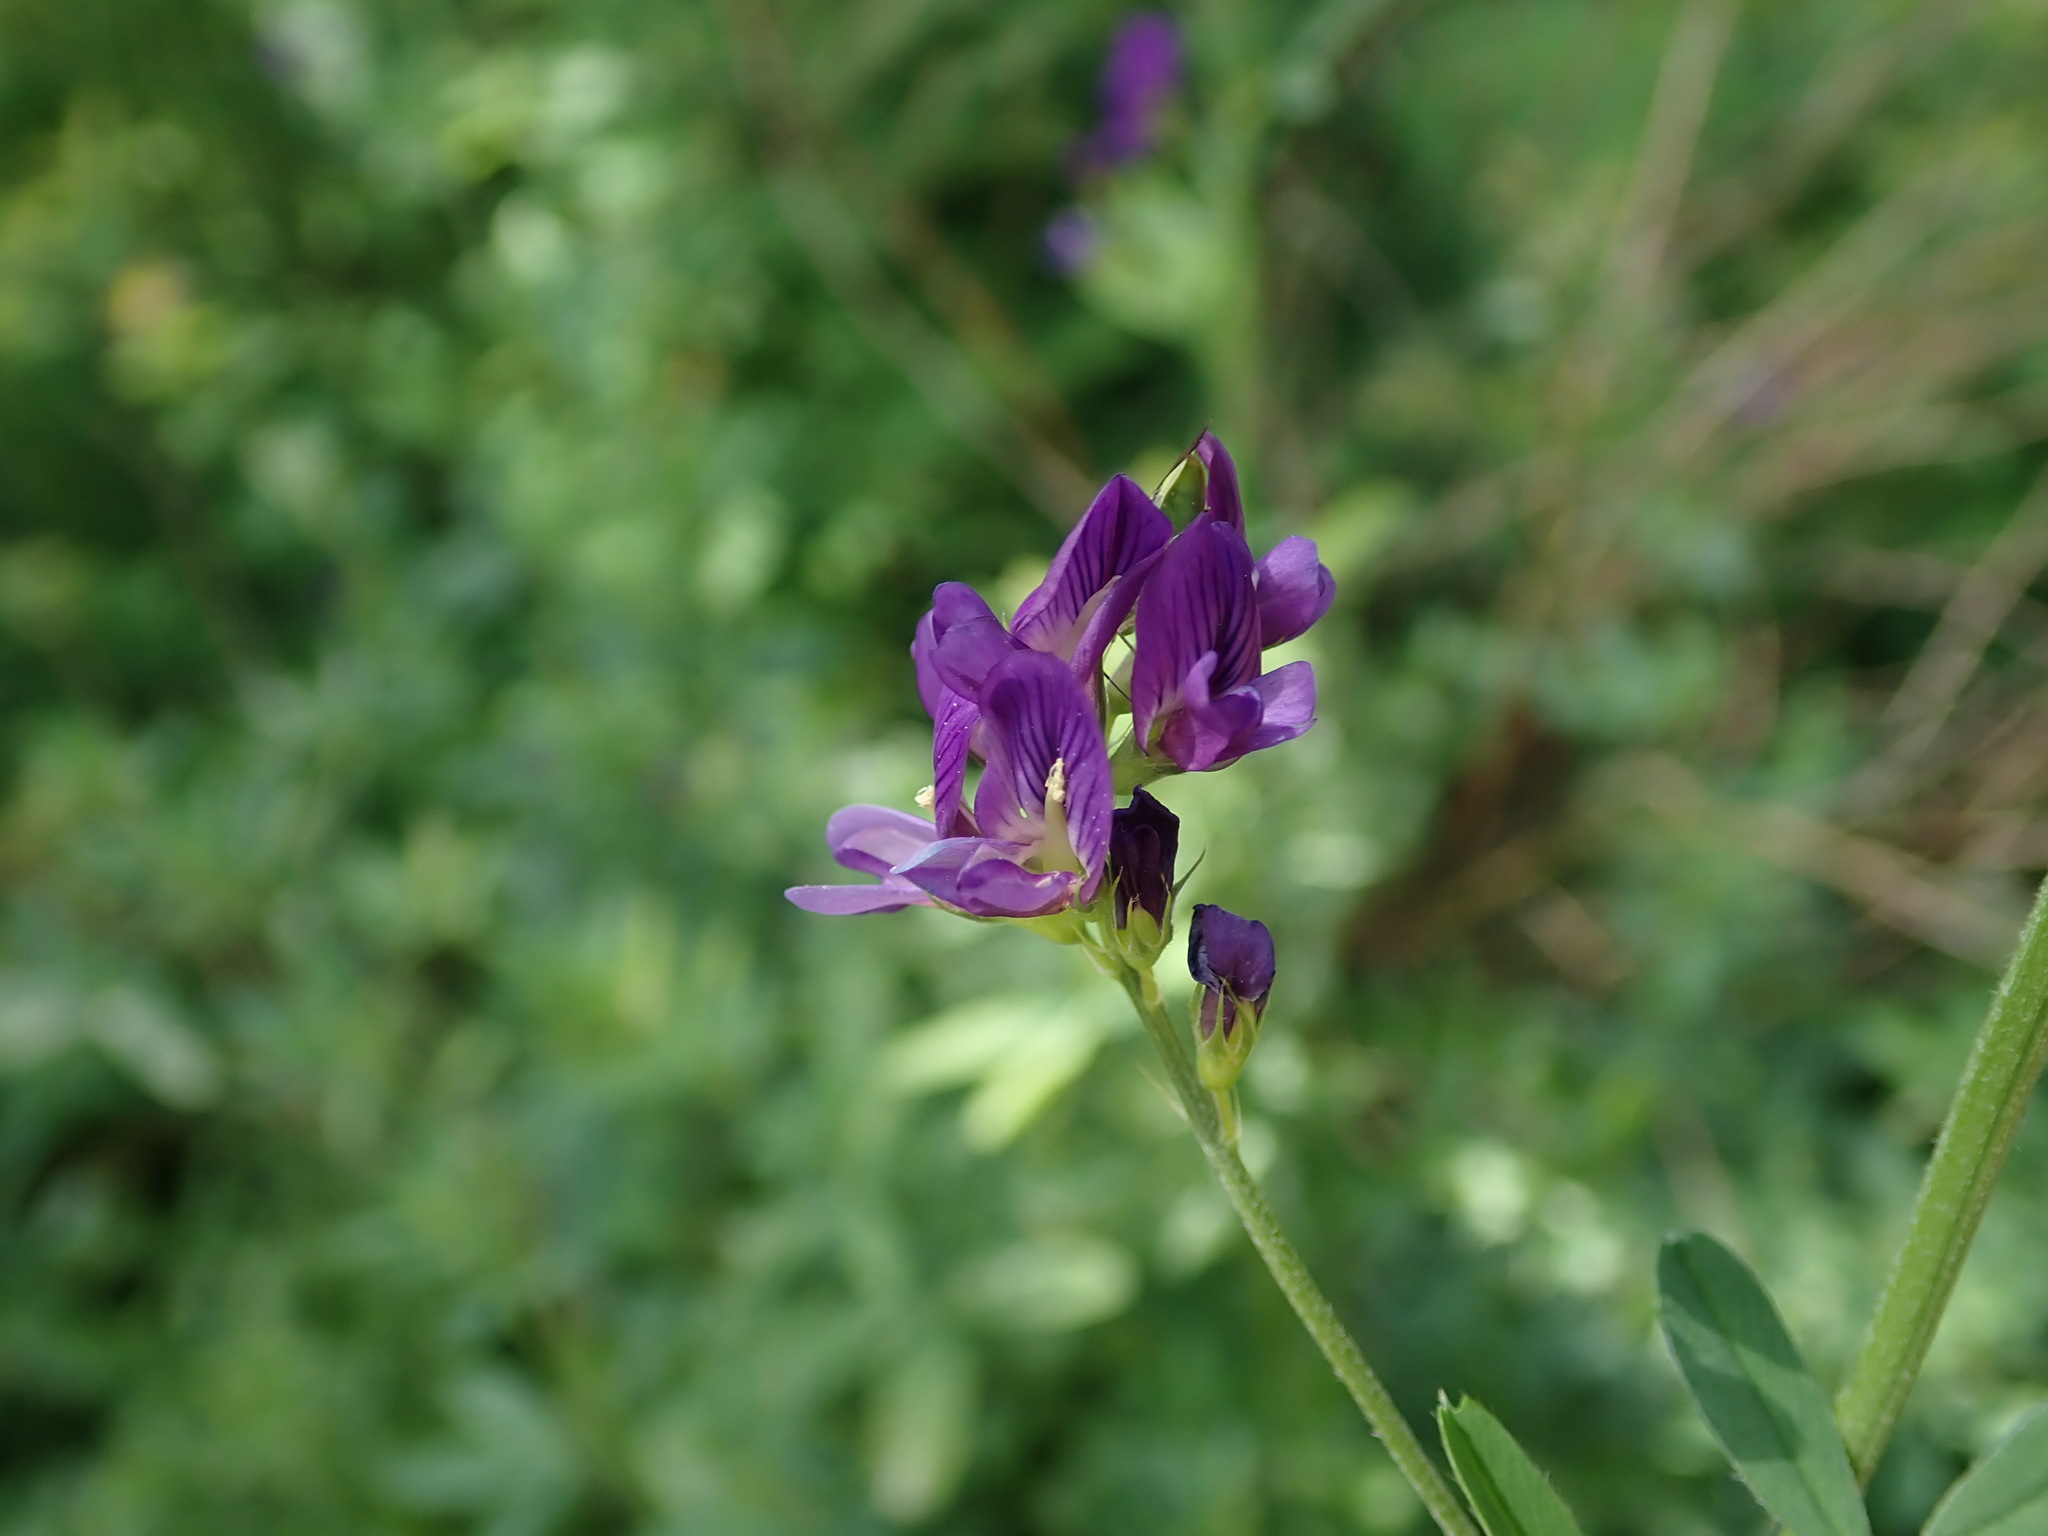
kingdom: Plantae
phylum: Tracheophyta
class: Magnoliopsida
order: Fabales
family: Fabaceae
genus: Medicago
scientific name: Medicago sativa
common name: Alfalfa
